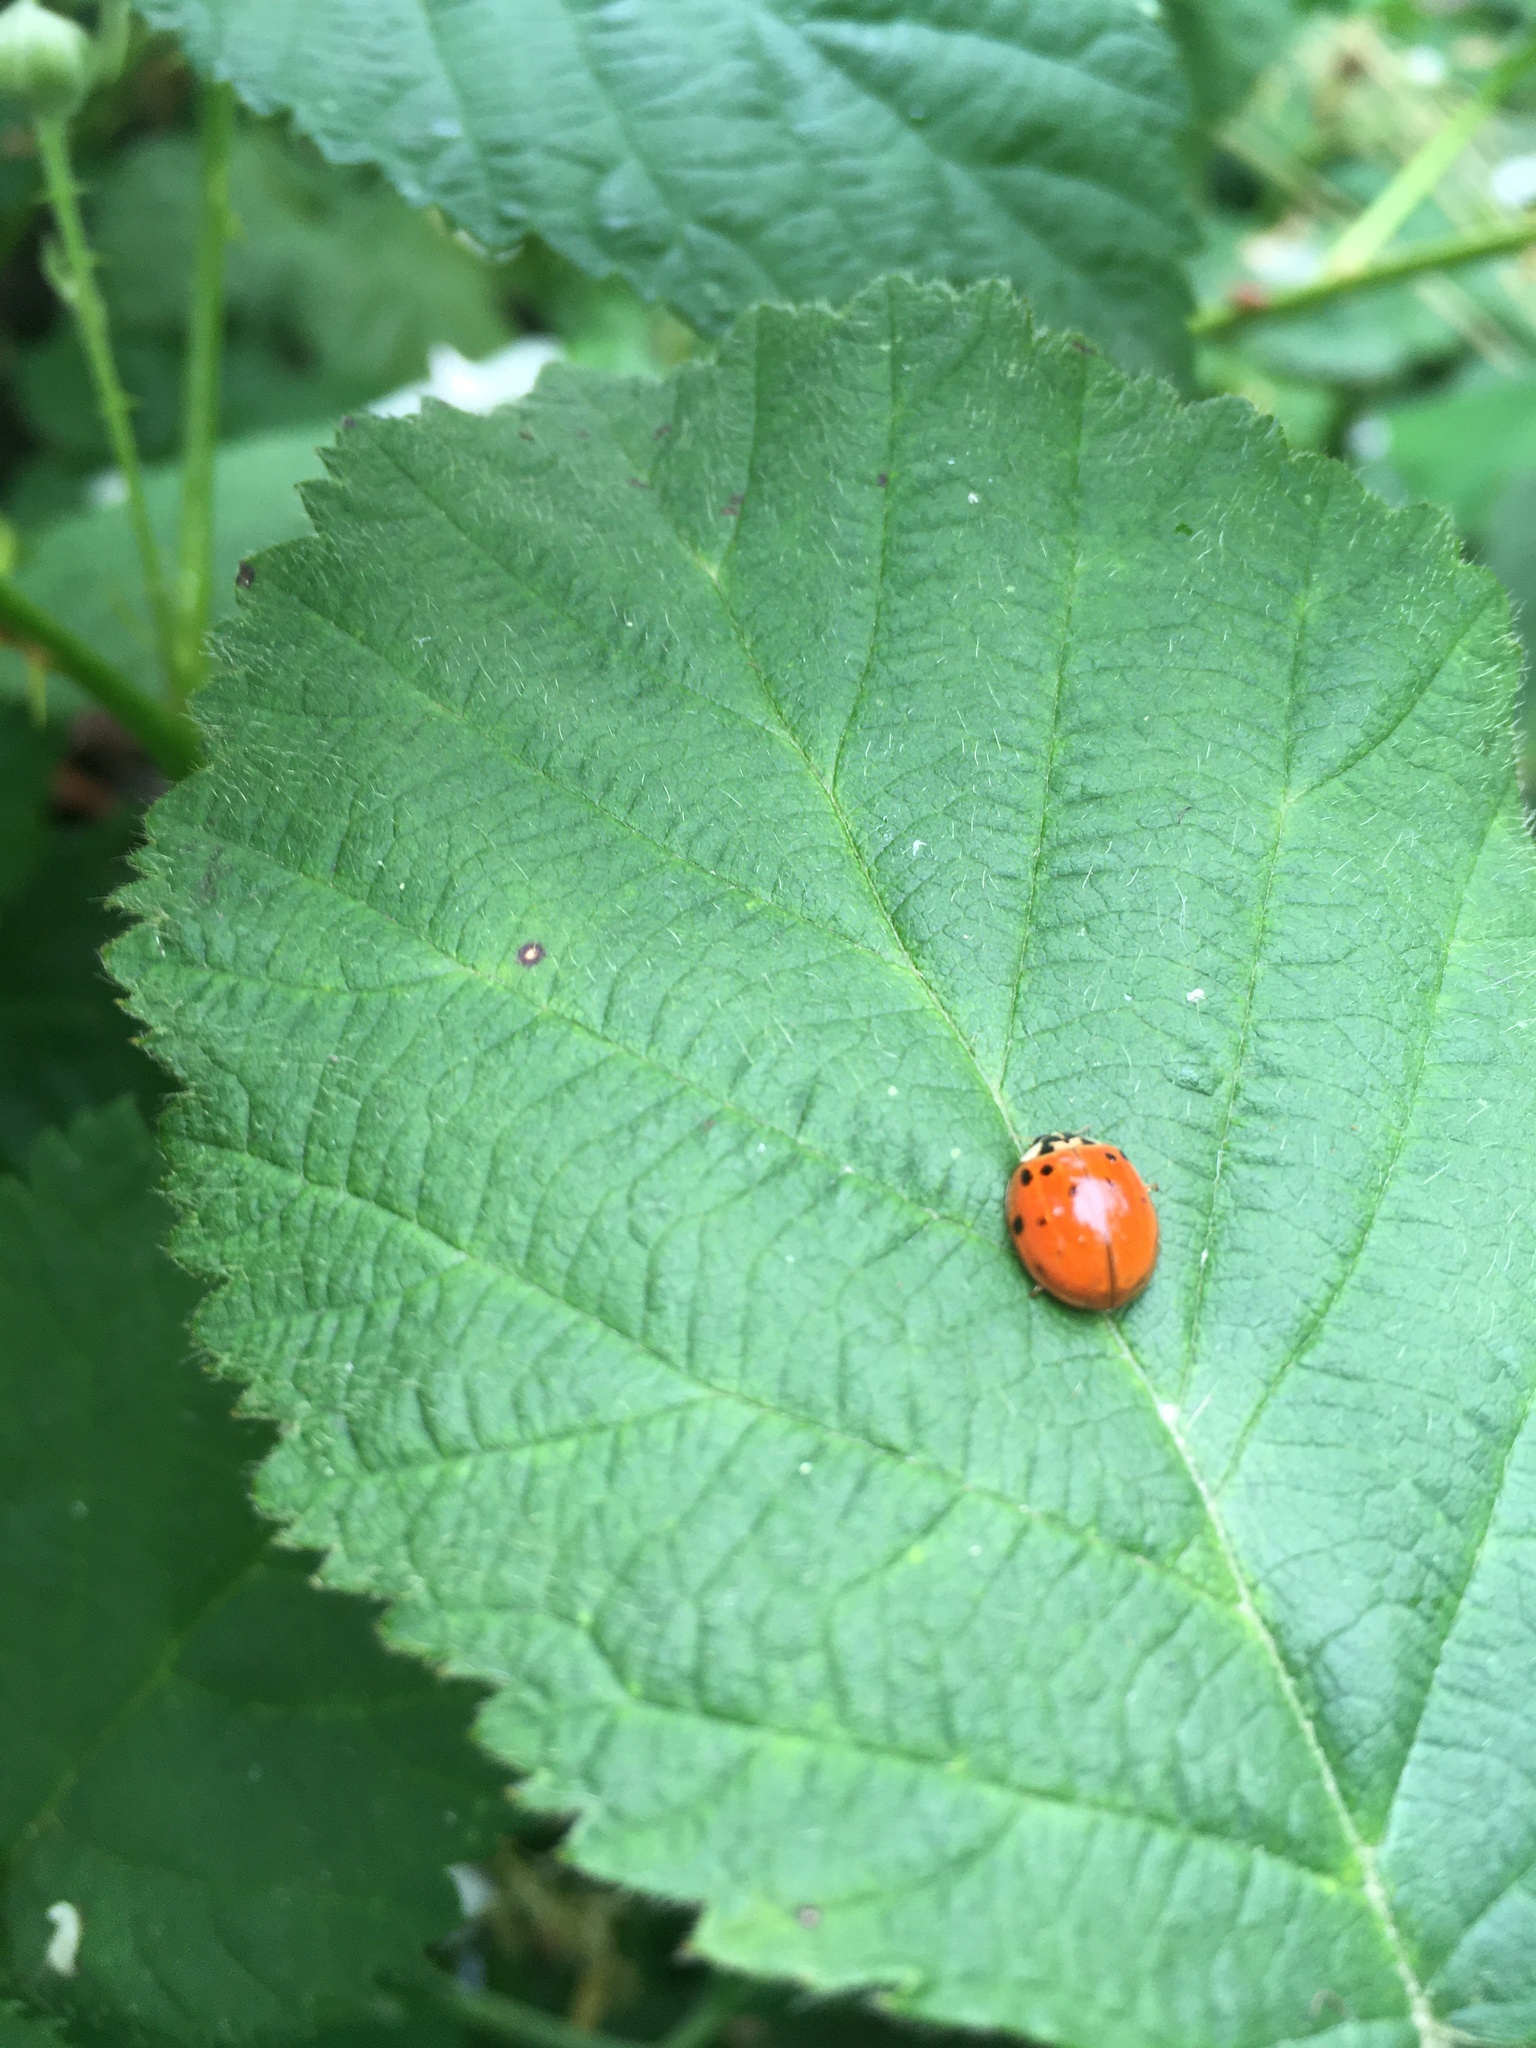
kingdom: Animalia
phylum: Arthropoda
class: Insecta
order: Coleoptera
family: Coccinellidae
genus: Harmonia
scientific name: Harmonia axyridis
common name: Harlequin ladybird
